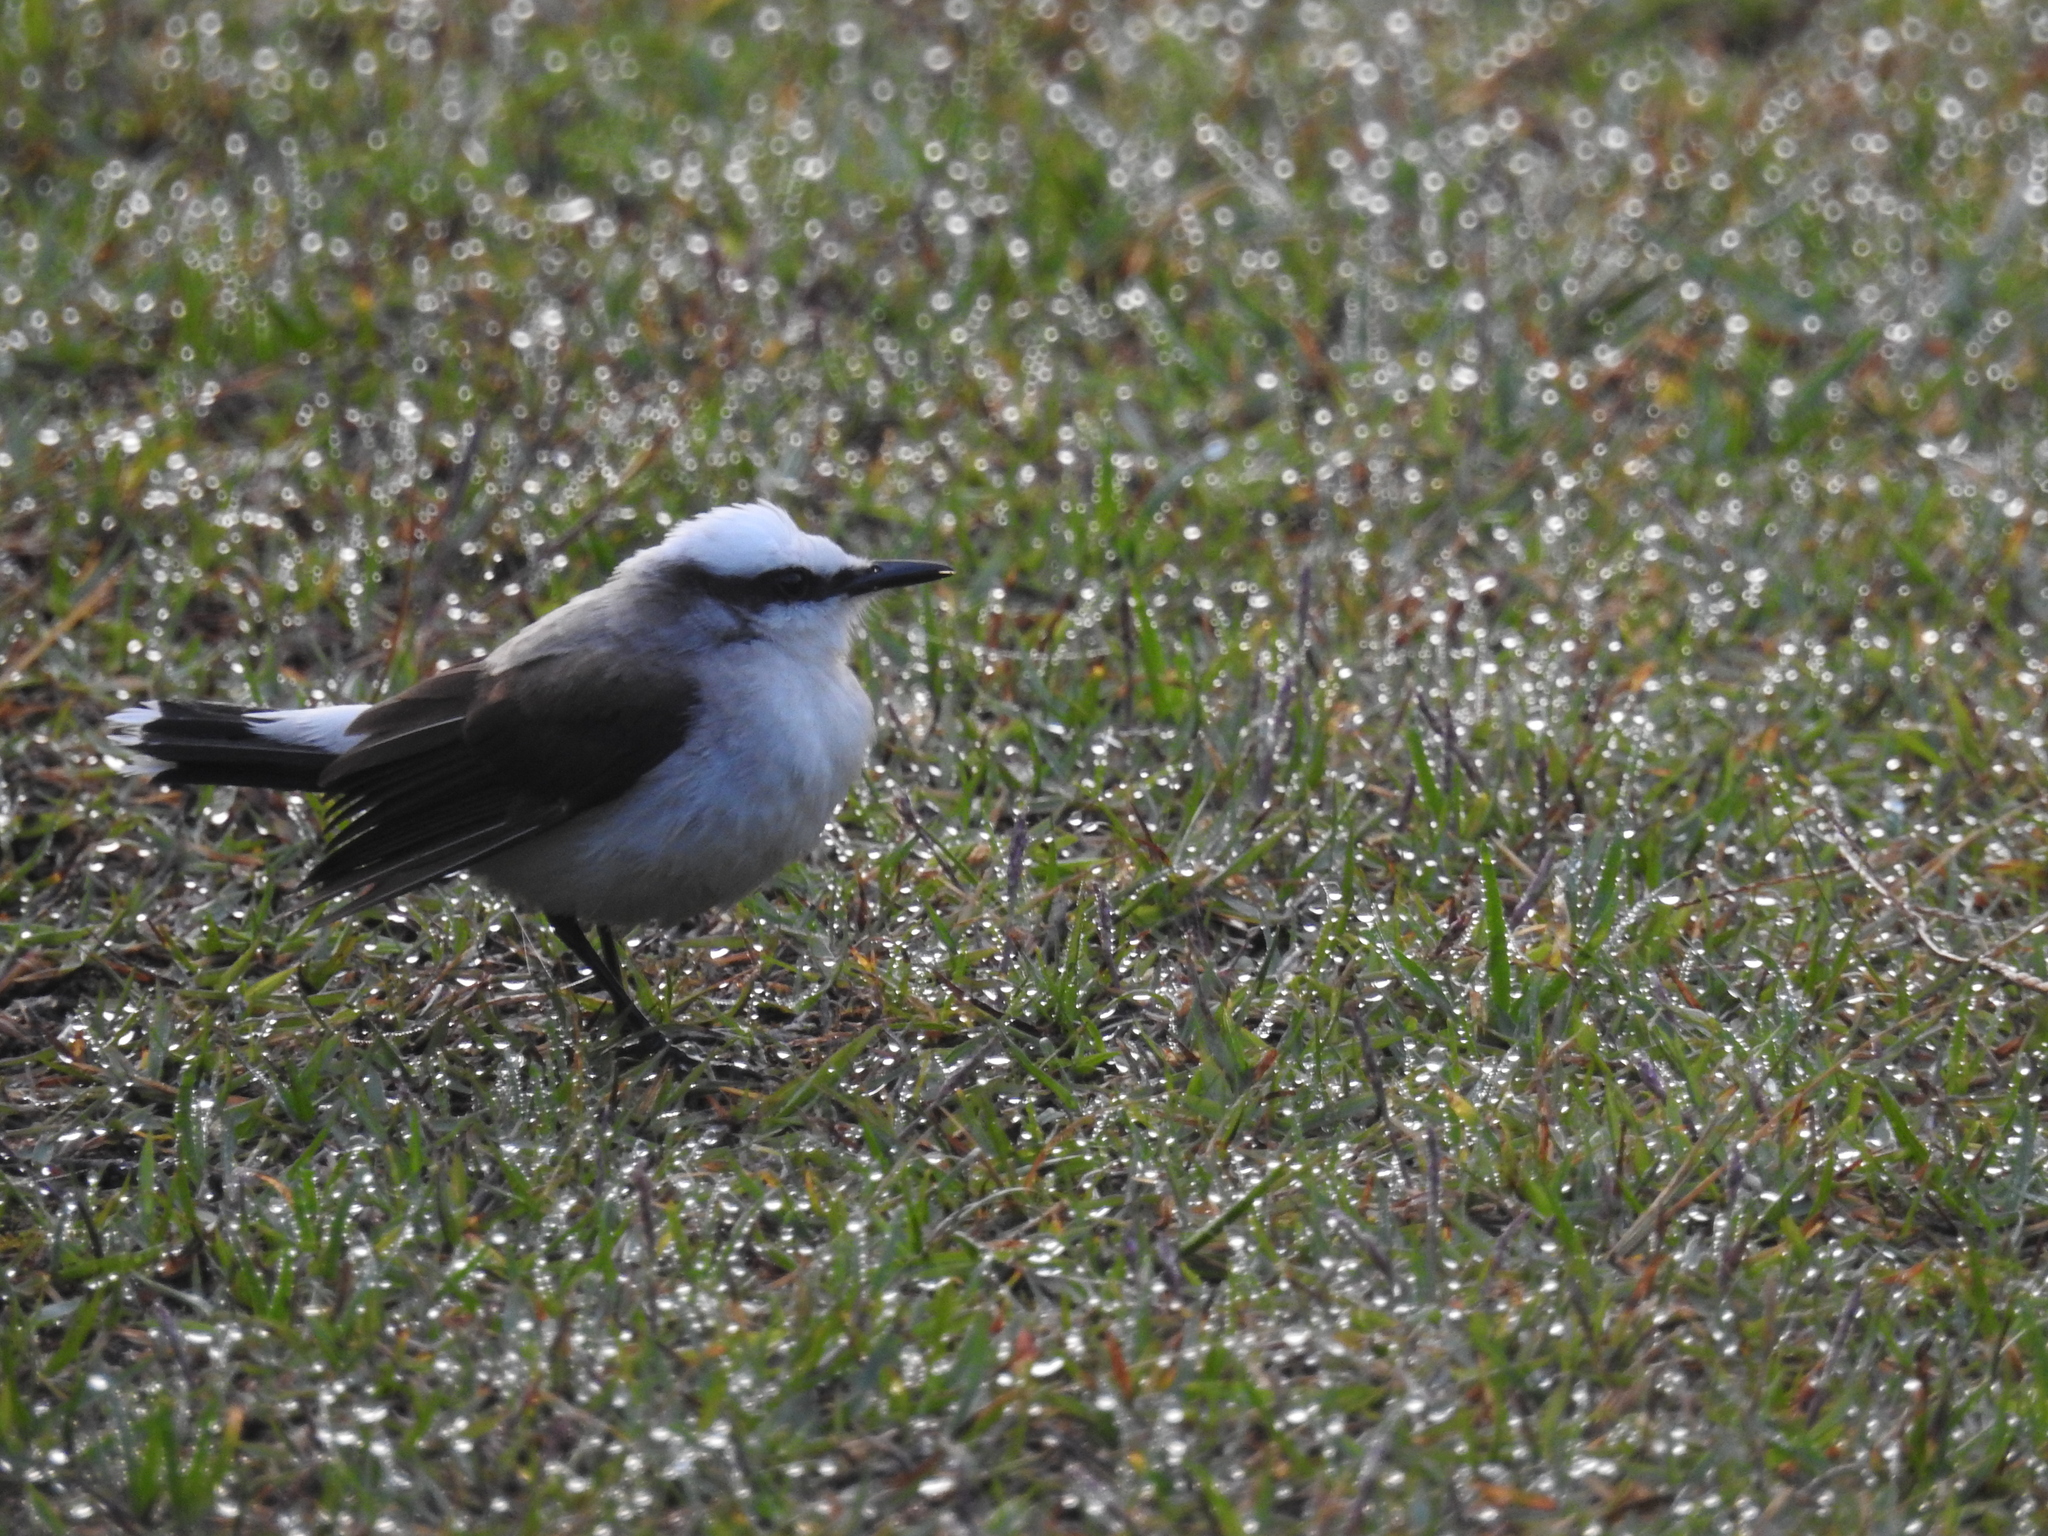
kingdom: Animalia
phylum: Chordata
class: Aves
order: Passeriformes
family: Tyrannidae
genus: Fluvicola
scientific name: Fluvicola nengeta
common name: Masked water tyrant
